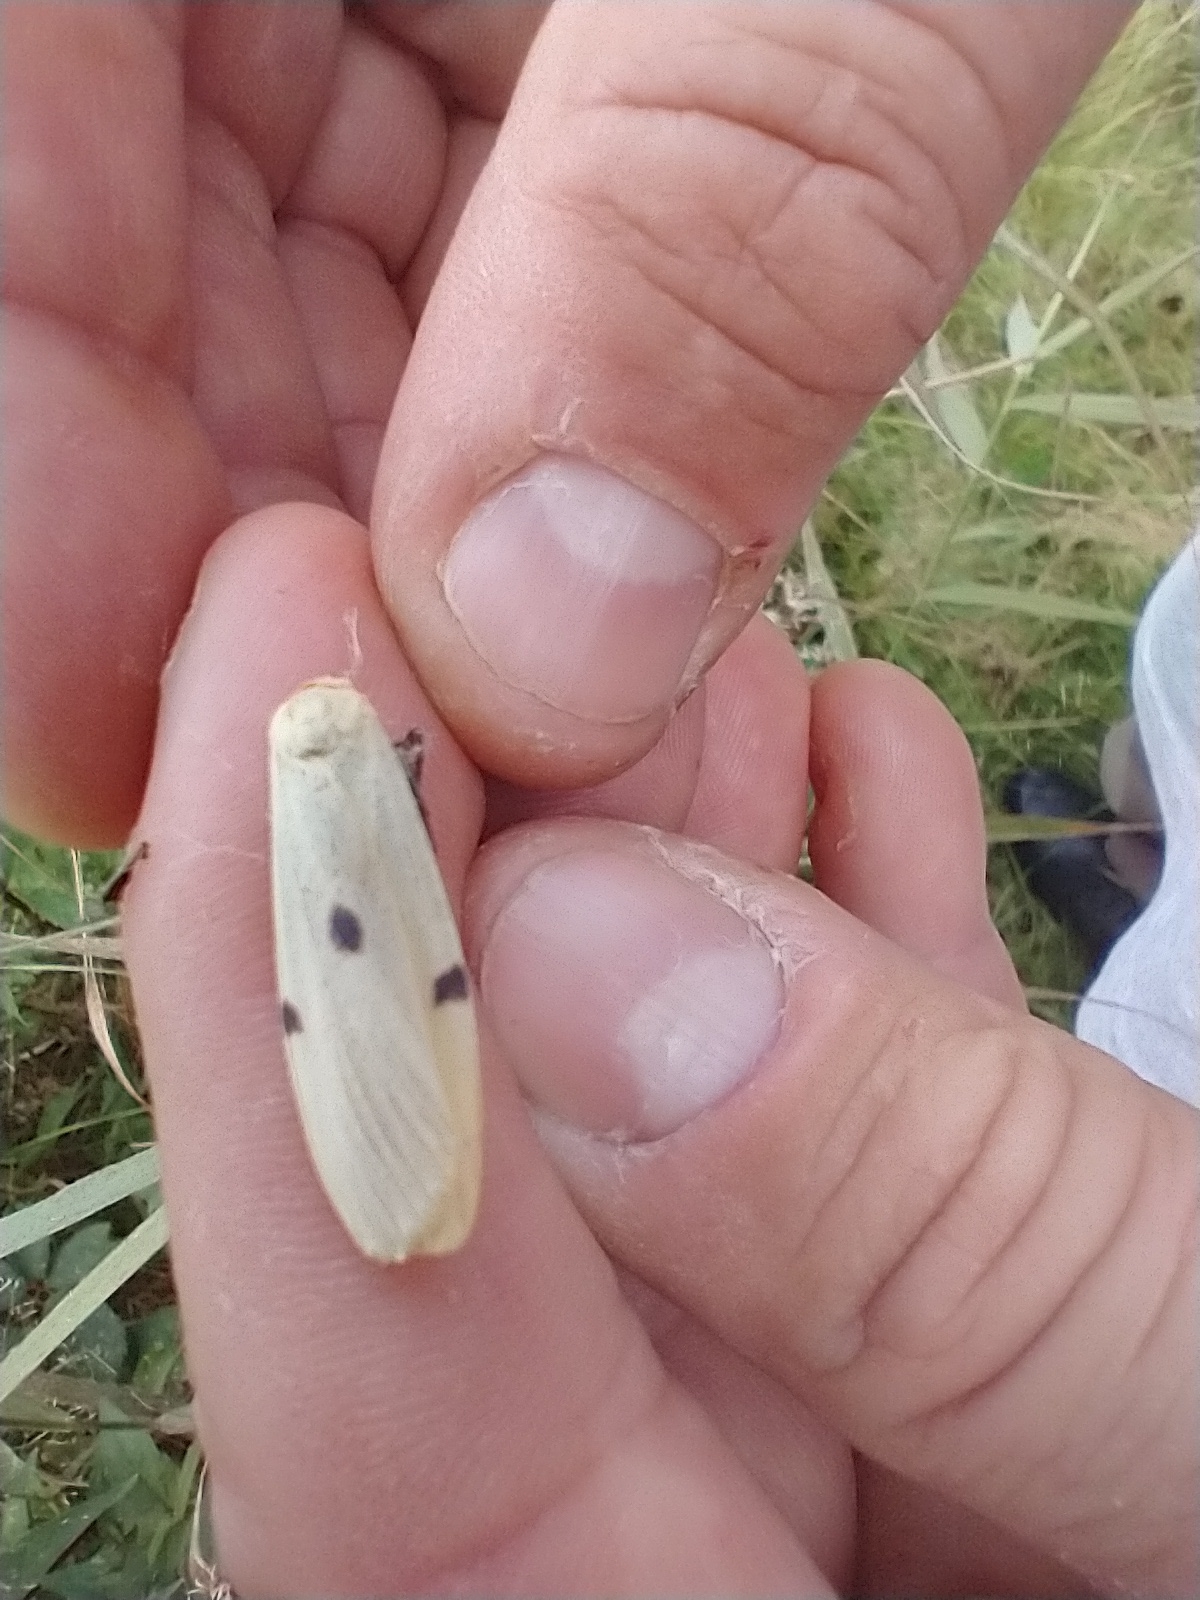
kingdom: Animalia
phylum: Arthropoda
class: Insecta
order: Lepidoptera
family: Erebidae
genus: Lithosia
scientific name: Lithosia quadra
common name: Four-spotted footman
